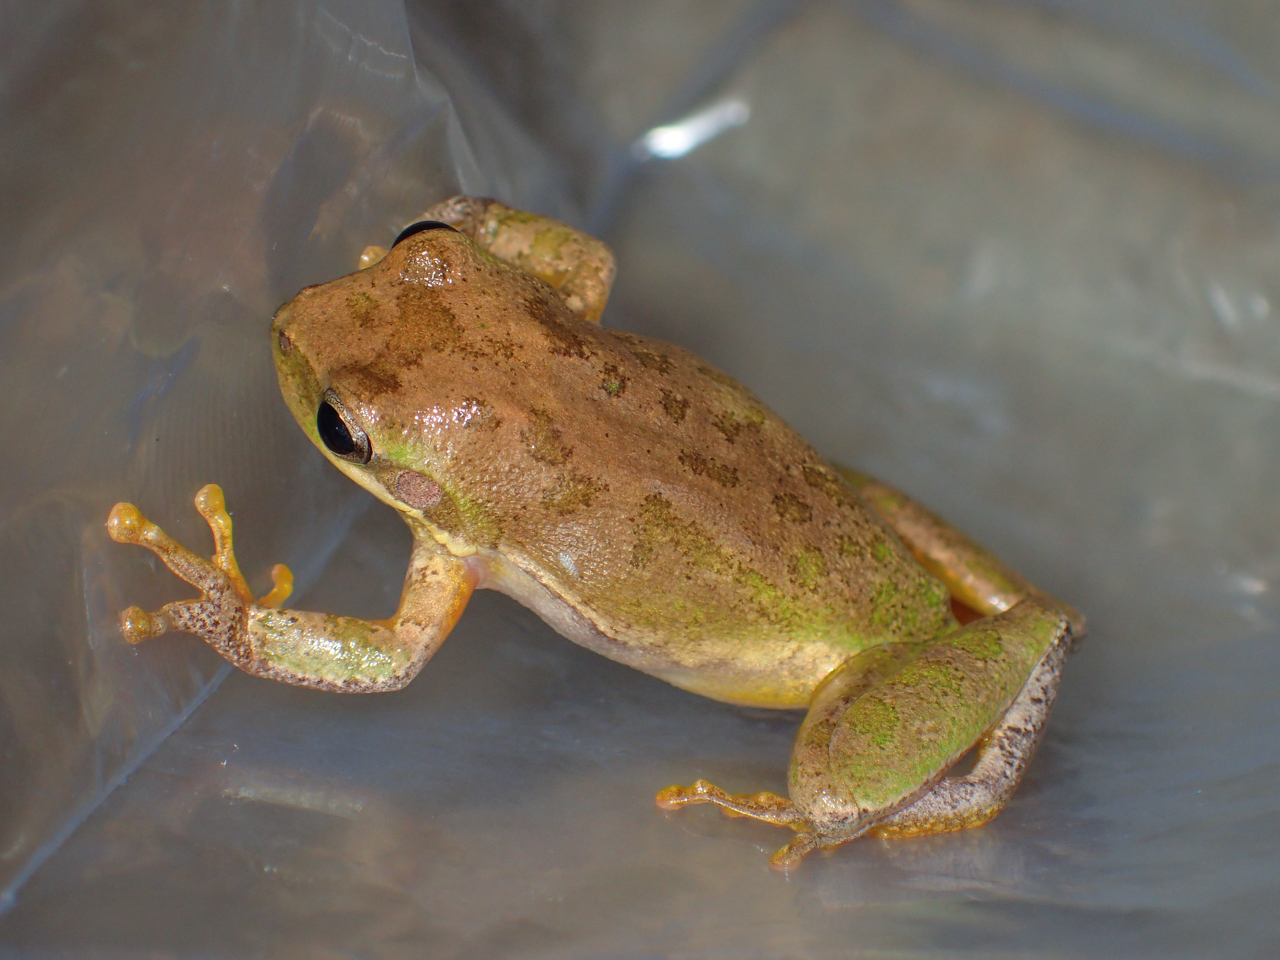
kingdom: Animalia
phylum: Chordata
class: Amphibia
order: Anura
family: Hylidae
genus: Dryophytes
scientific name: Dryophytes squirellus
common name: Squirrel treefrog
